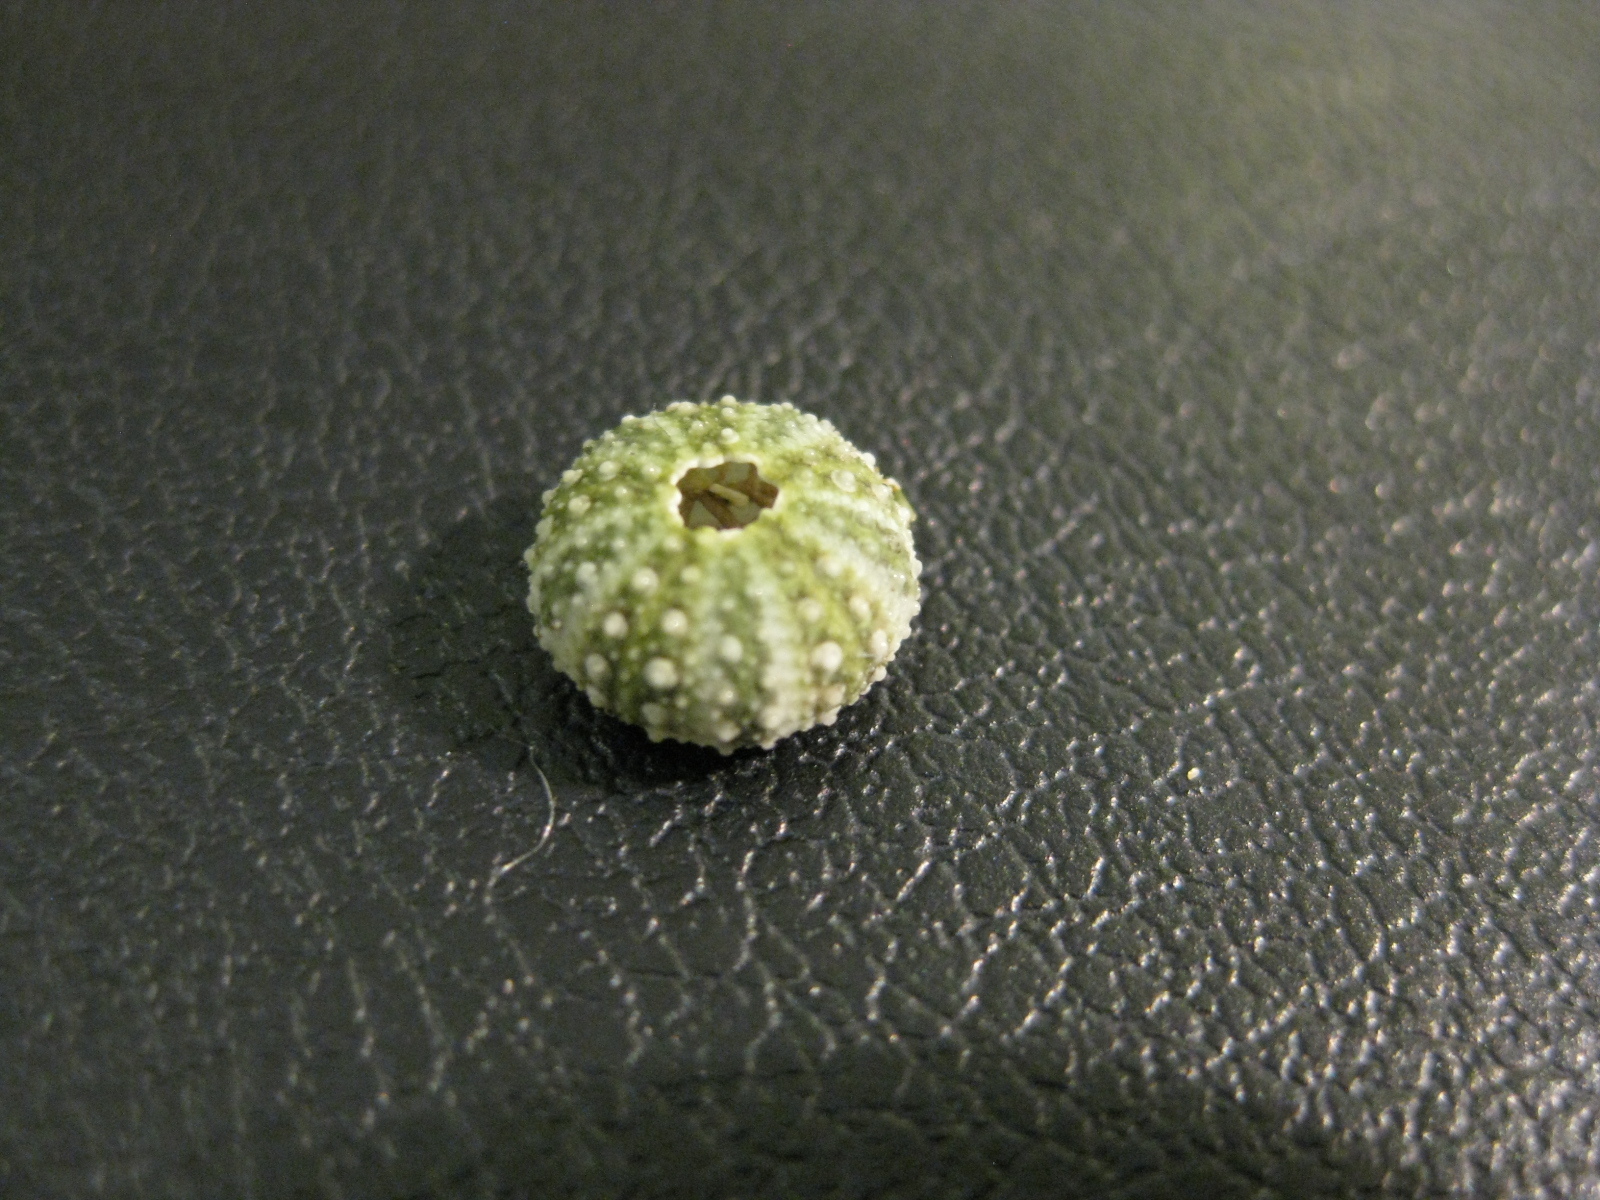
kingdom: Animalia
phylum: Echinodermata
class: Echinoidea
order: Camarodonta
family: Echinometridae
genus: Evechinus
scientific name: Evechinus chloroticus
